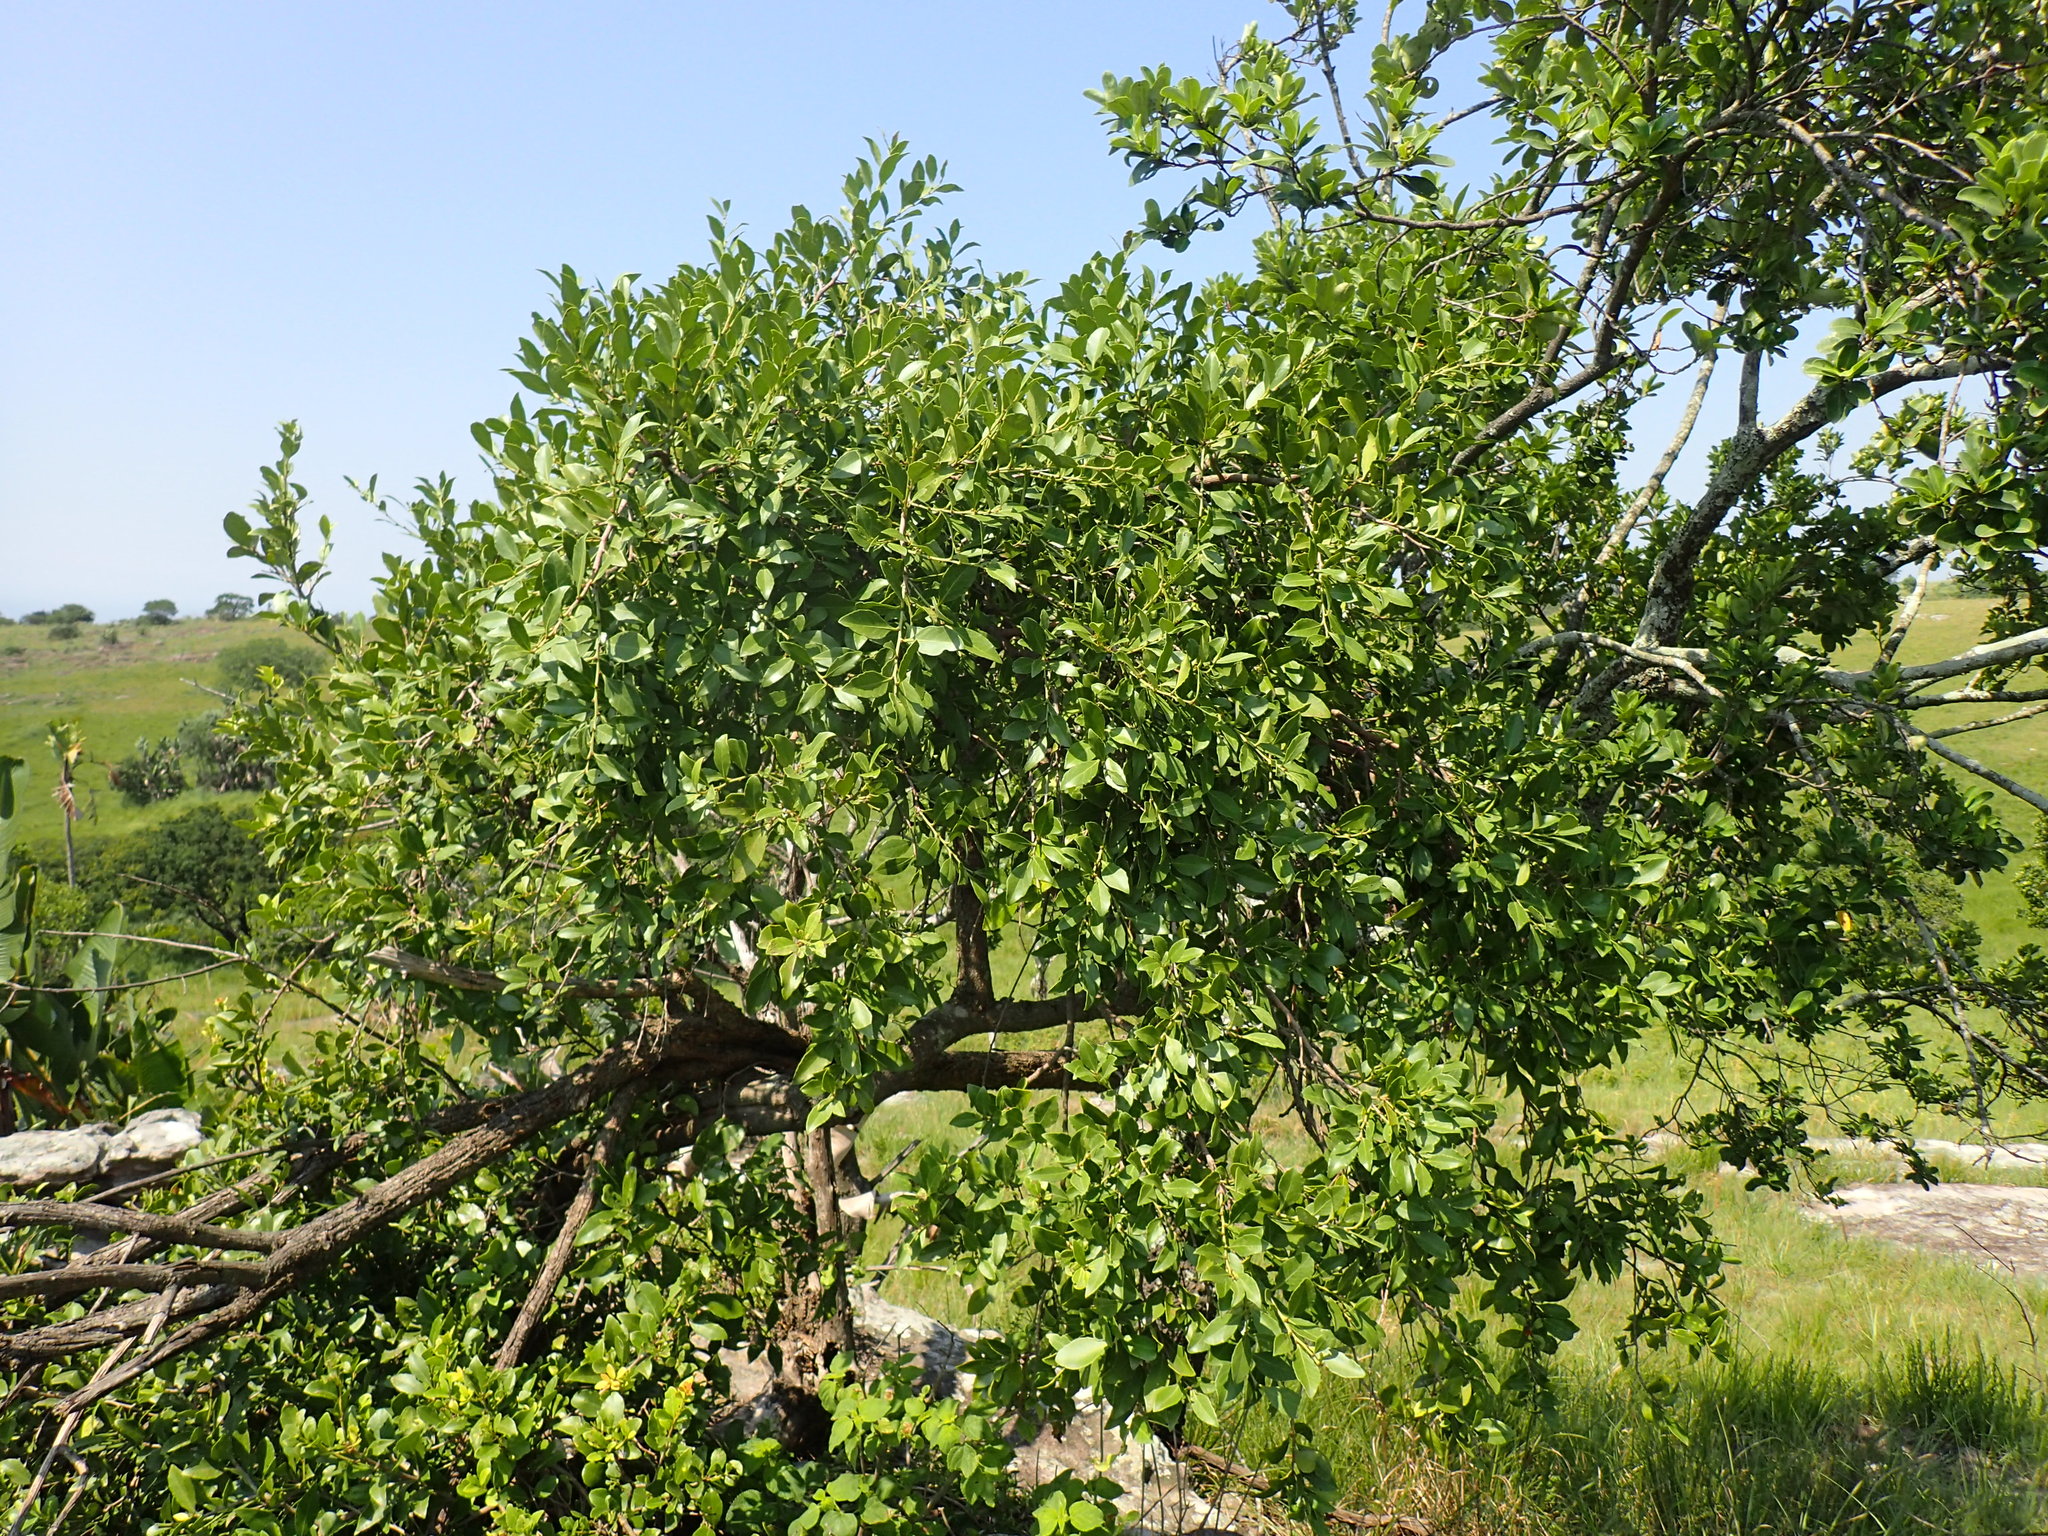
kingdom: Plantae
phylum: Tracheophyta
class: Magnoliopsida
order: Celastrales
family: Celastraceae
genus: Gymnosporia
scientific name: Gymnosporia undata
